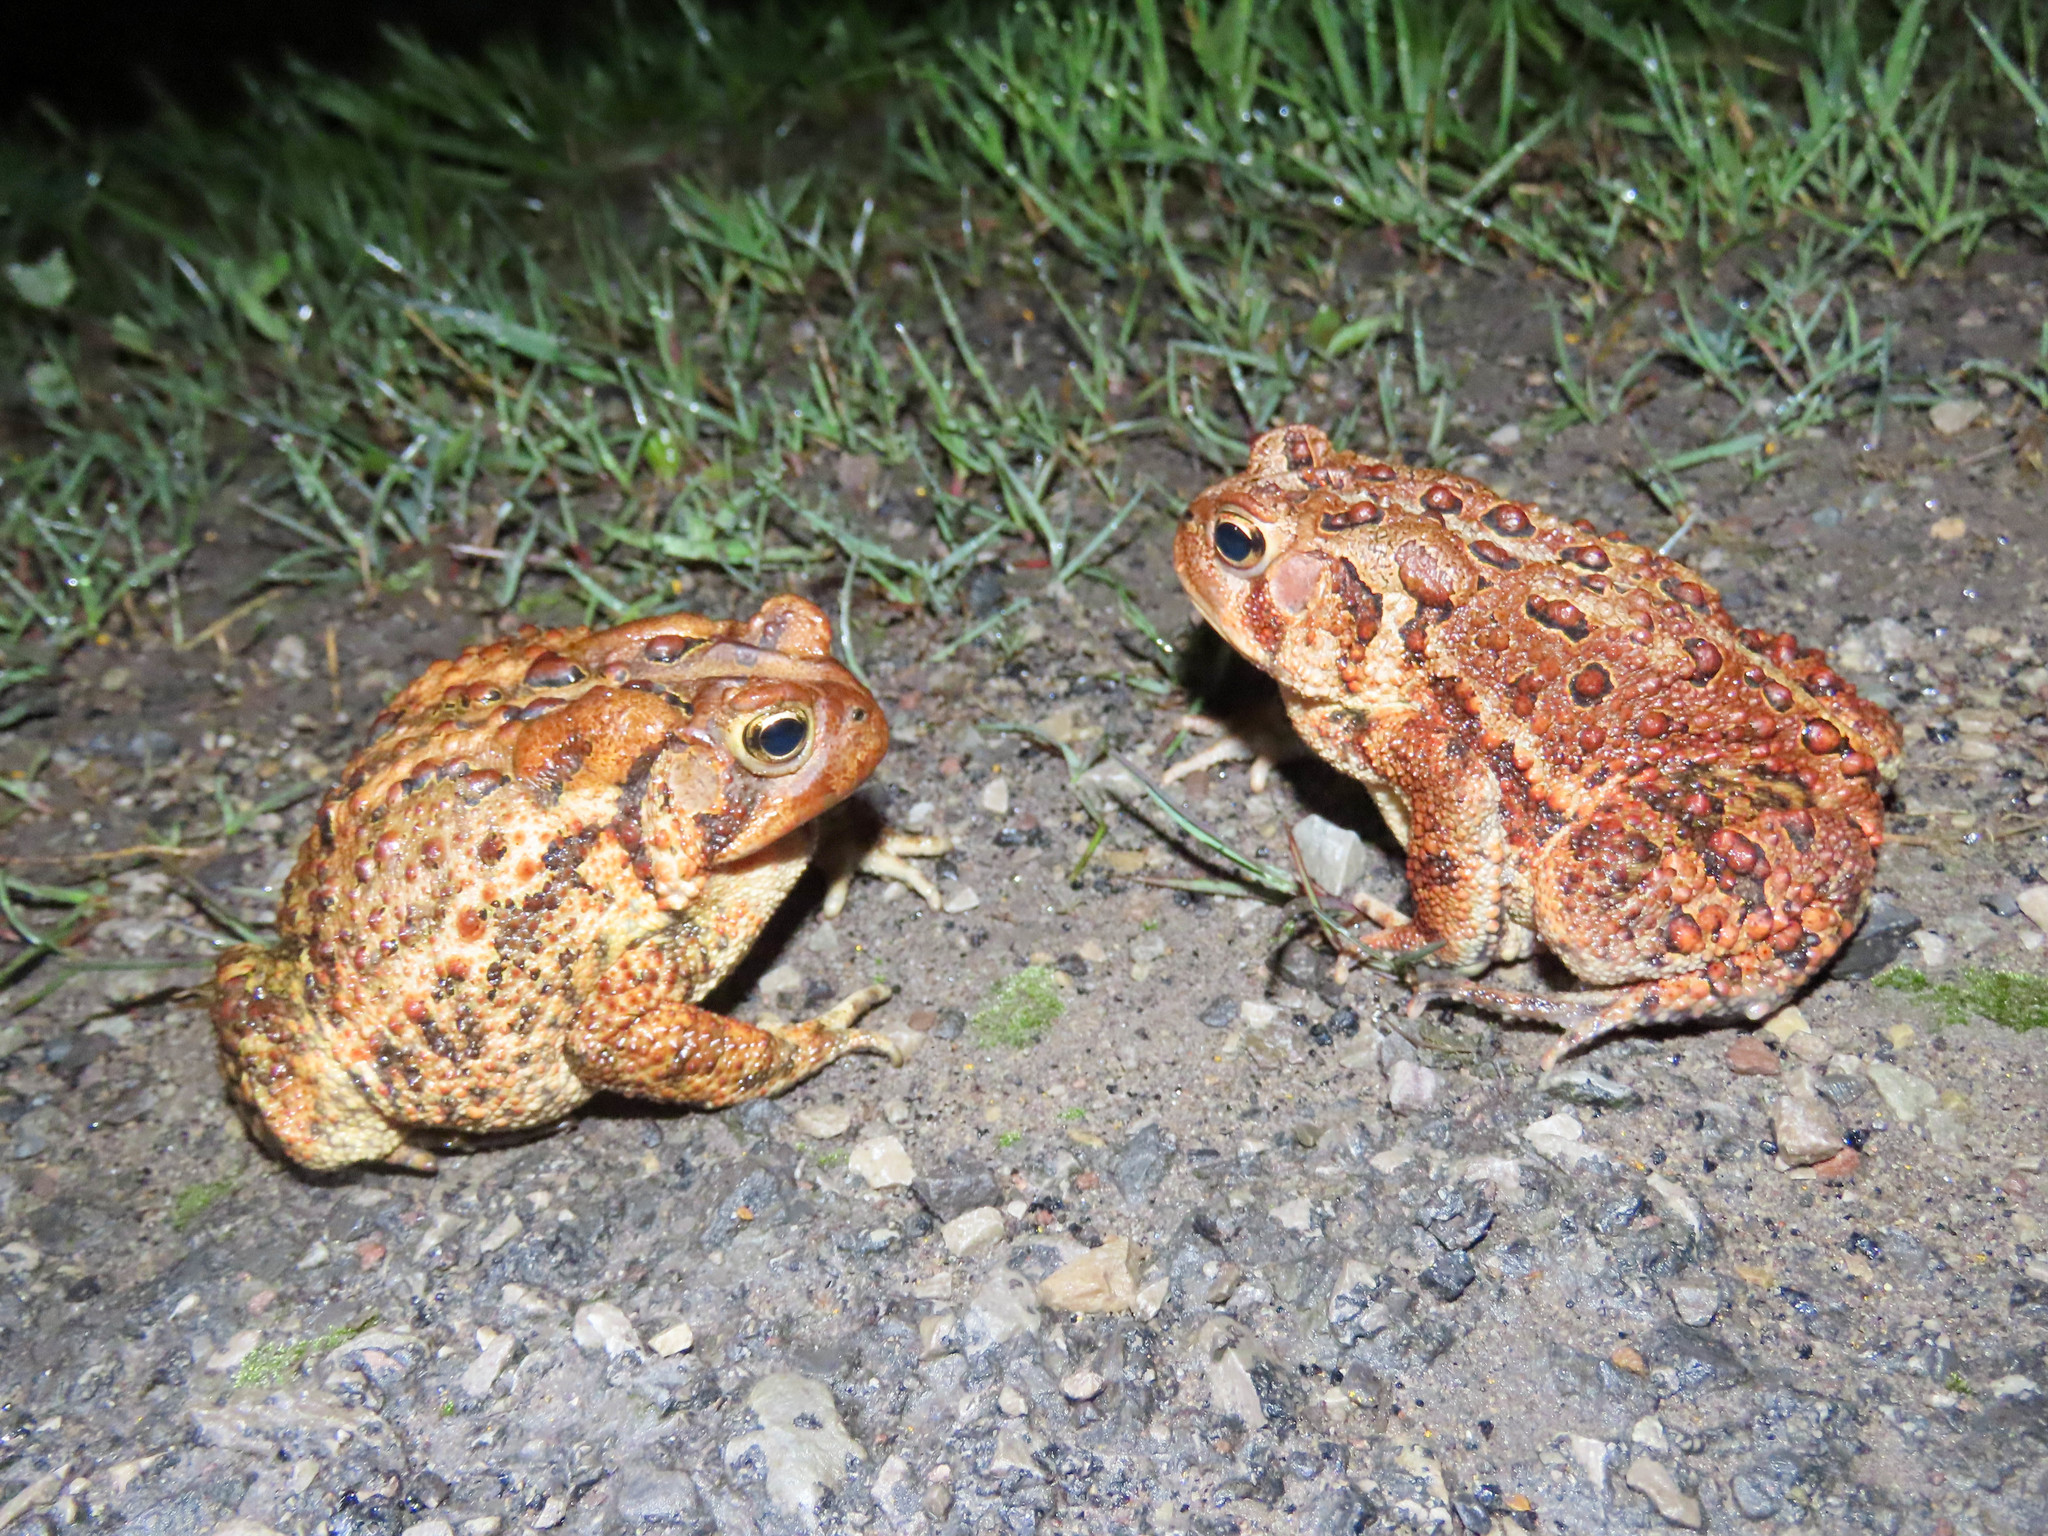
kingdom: Animalia
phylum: Chordata
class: Amphibia
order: Anura
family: Bufonidae
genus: Anaxyrus
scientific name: Anaxyrus americanus
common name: American toad
